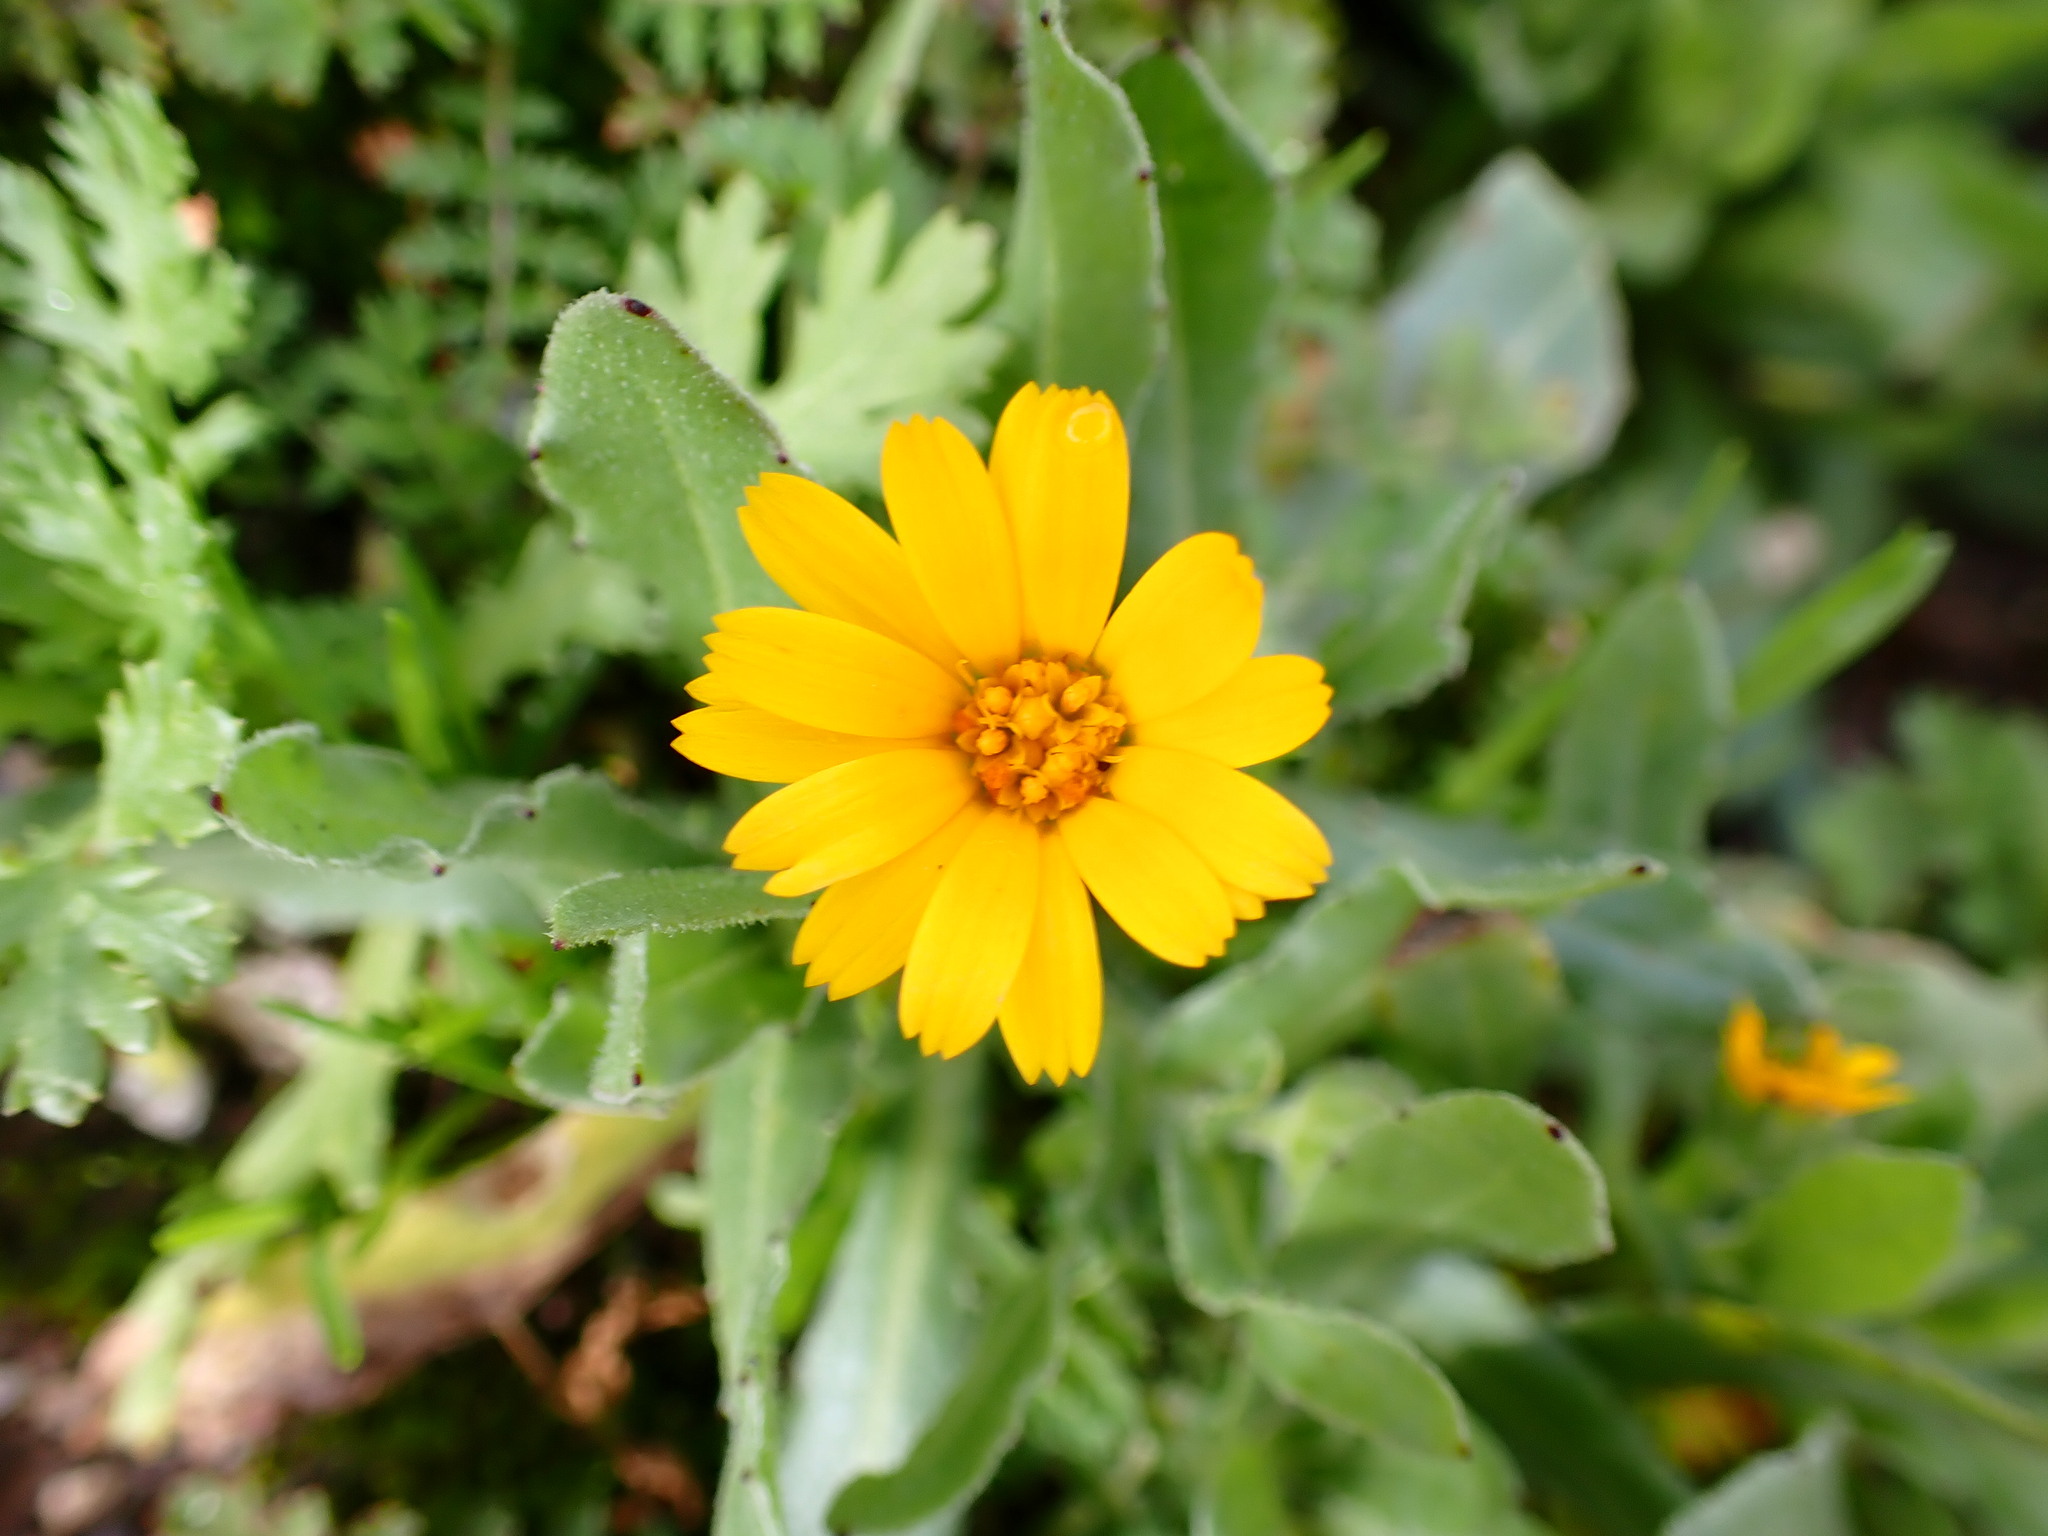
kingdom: Plantae
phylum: Tracheophyta
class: Magnoliopsida
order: Asterales
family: Asteraceae
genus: Calendula
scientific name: Calendula arvensis
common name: Field marigold
